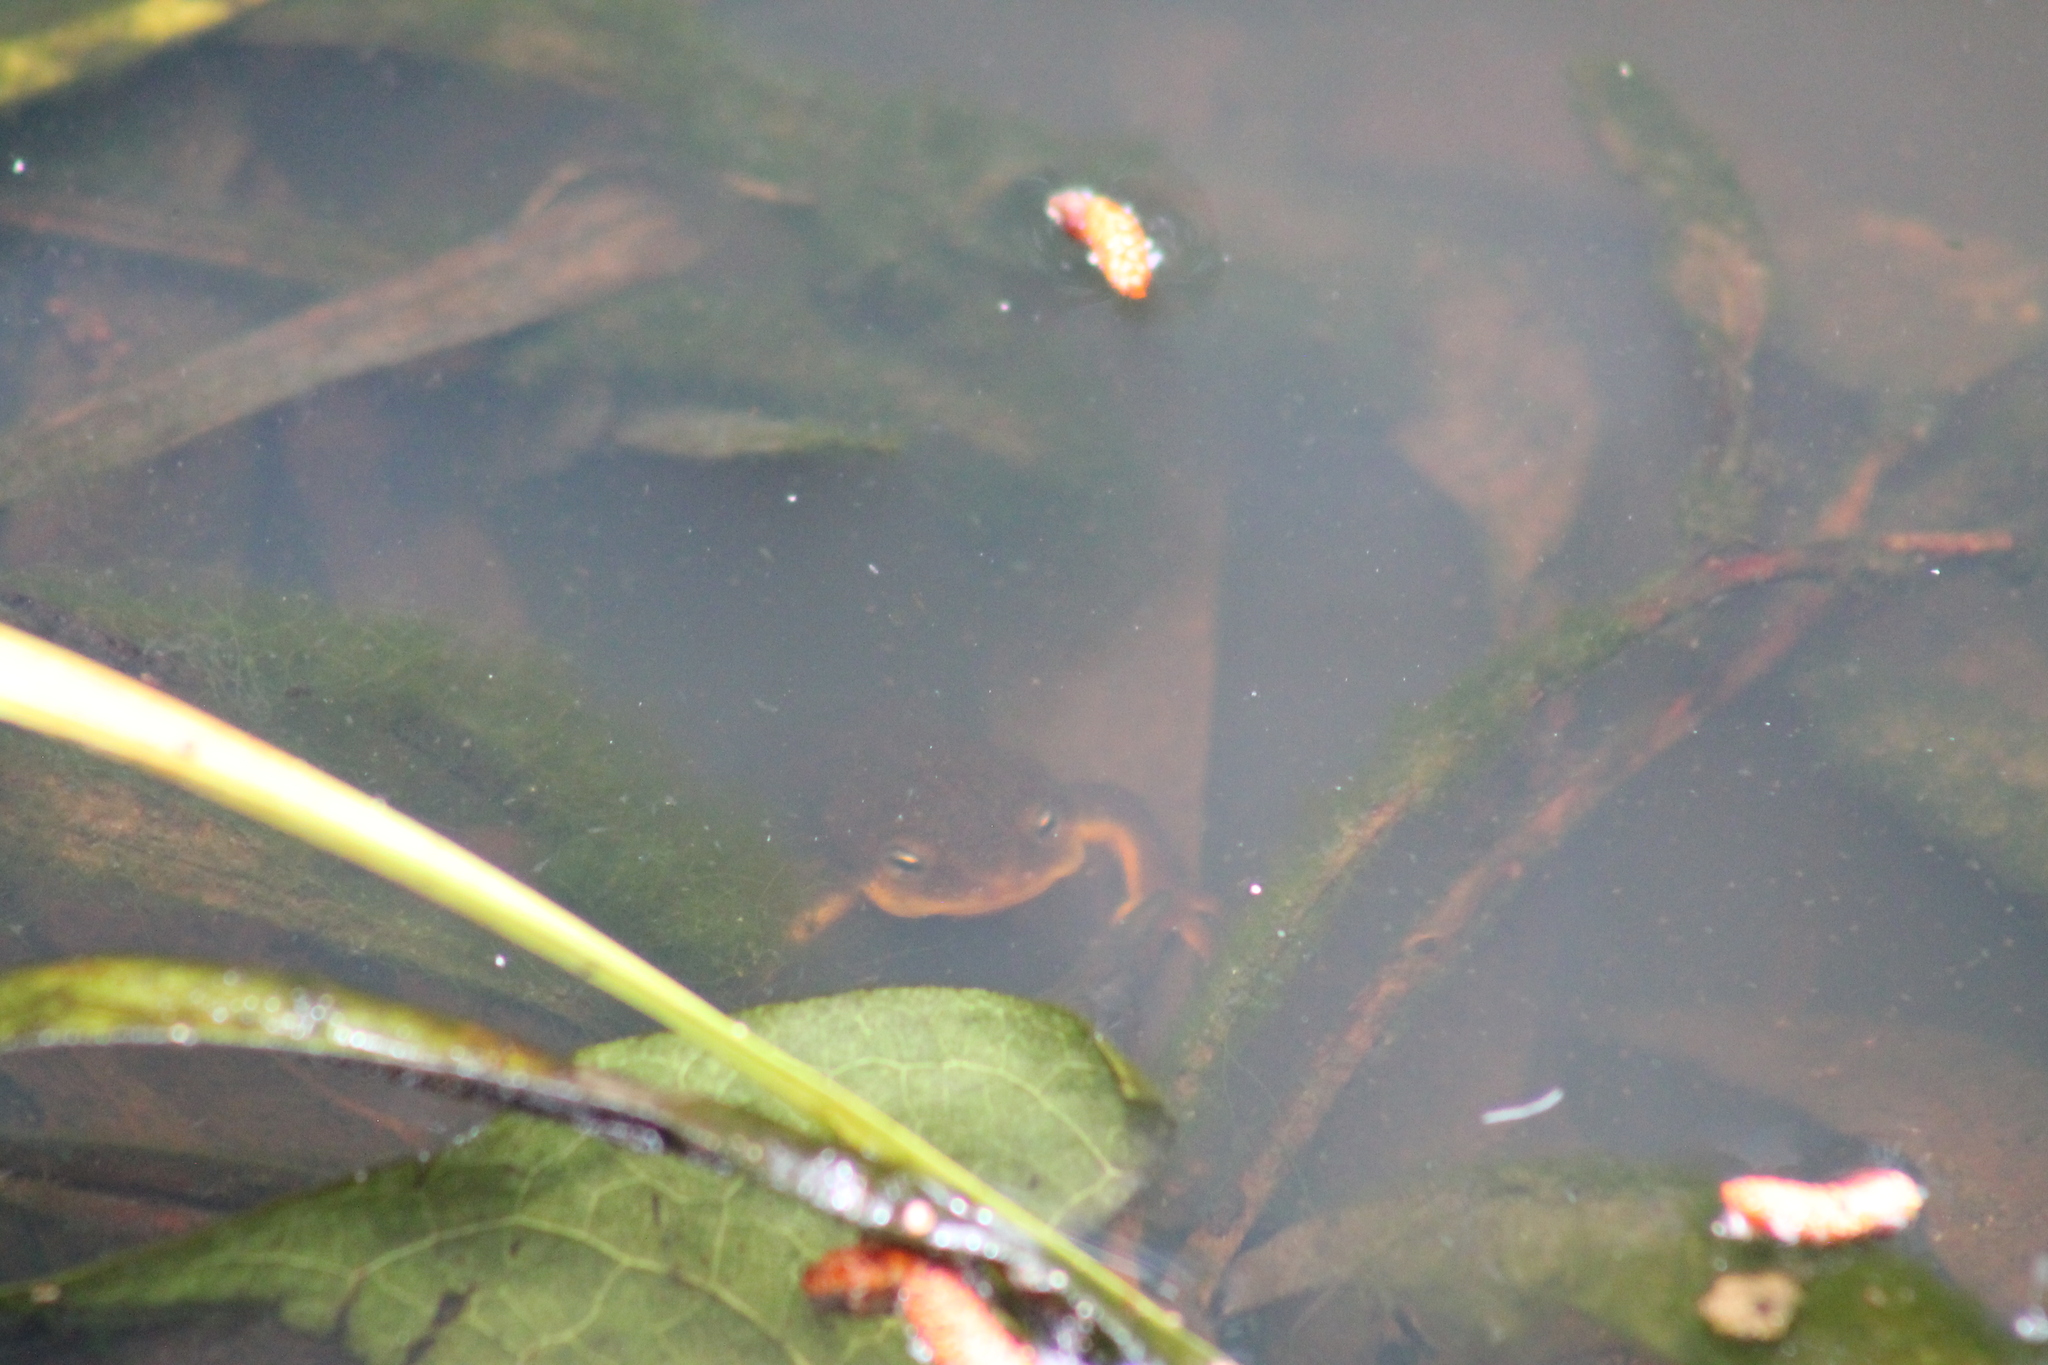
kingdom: Animalia
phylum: Chordata
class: Amphibia
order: Caudata
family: Salamandridae
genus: Taricha
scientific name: Taricha granulosa
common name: Roughskin newt
